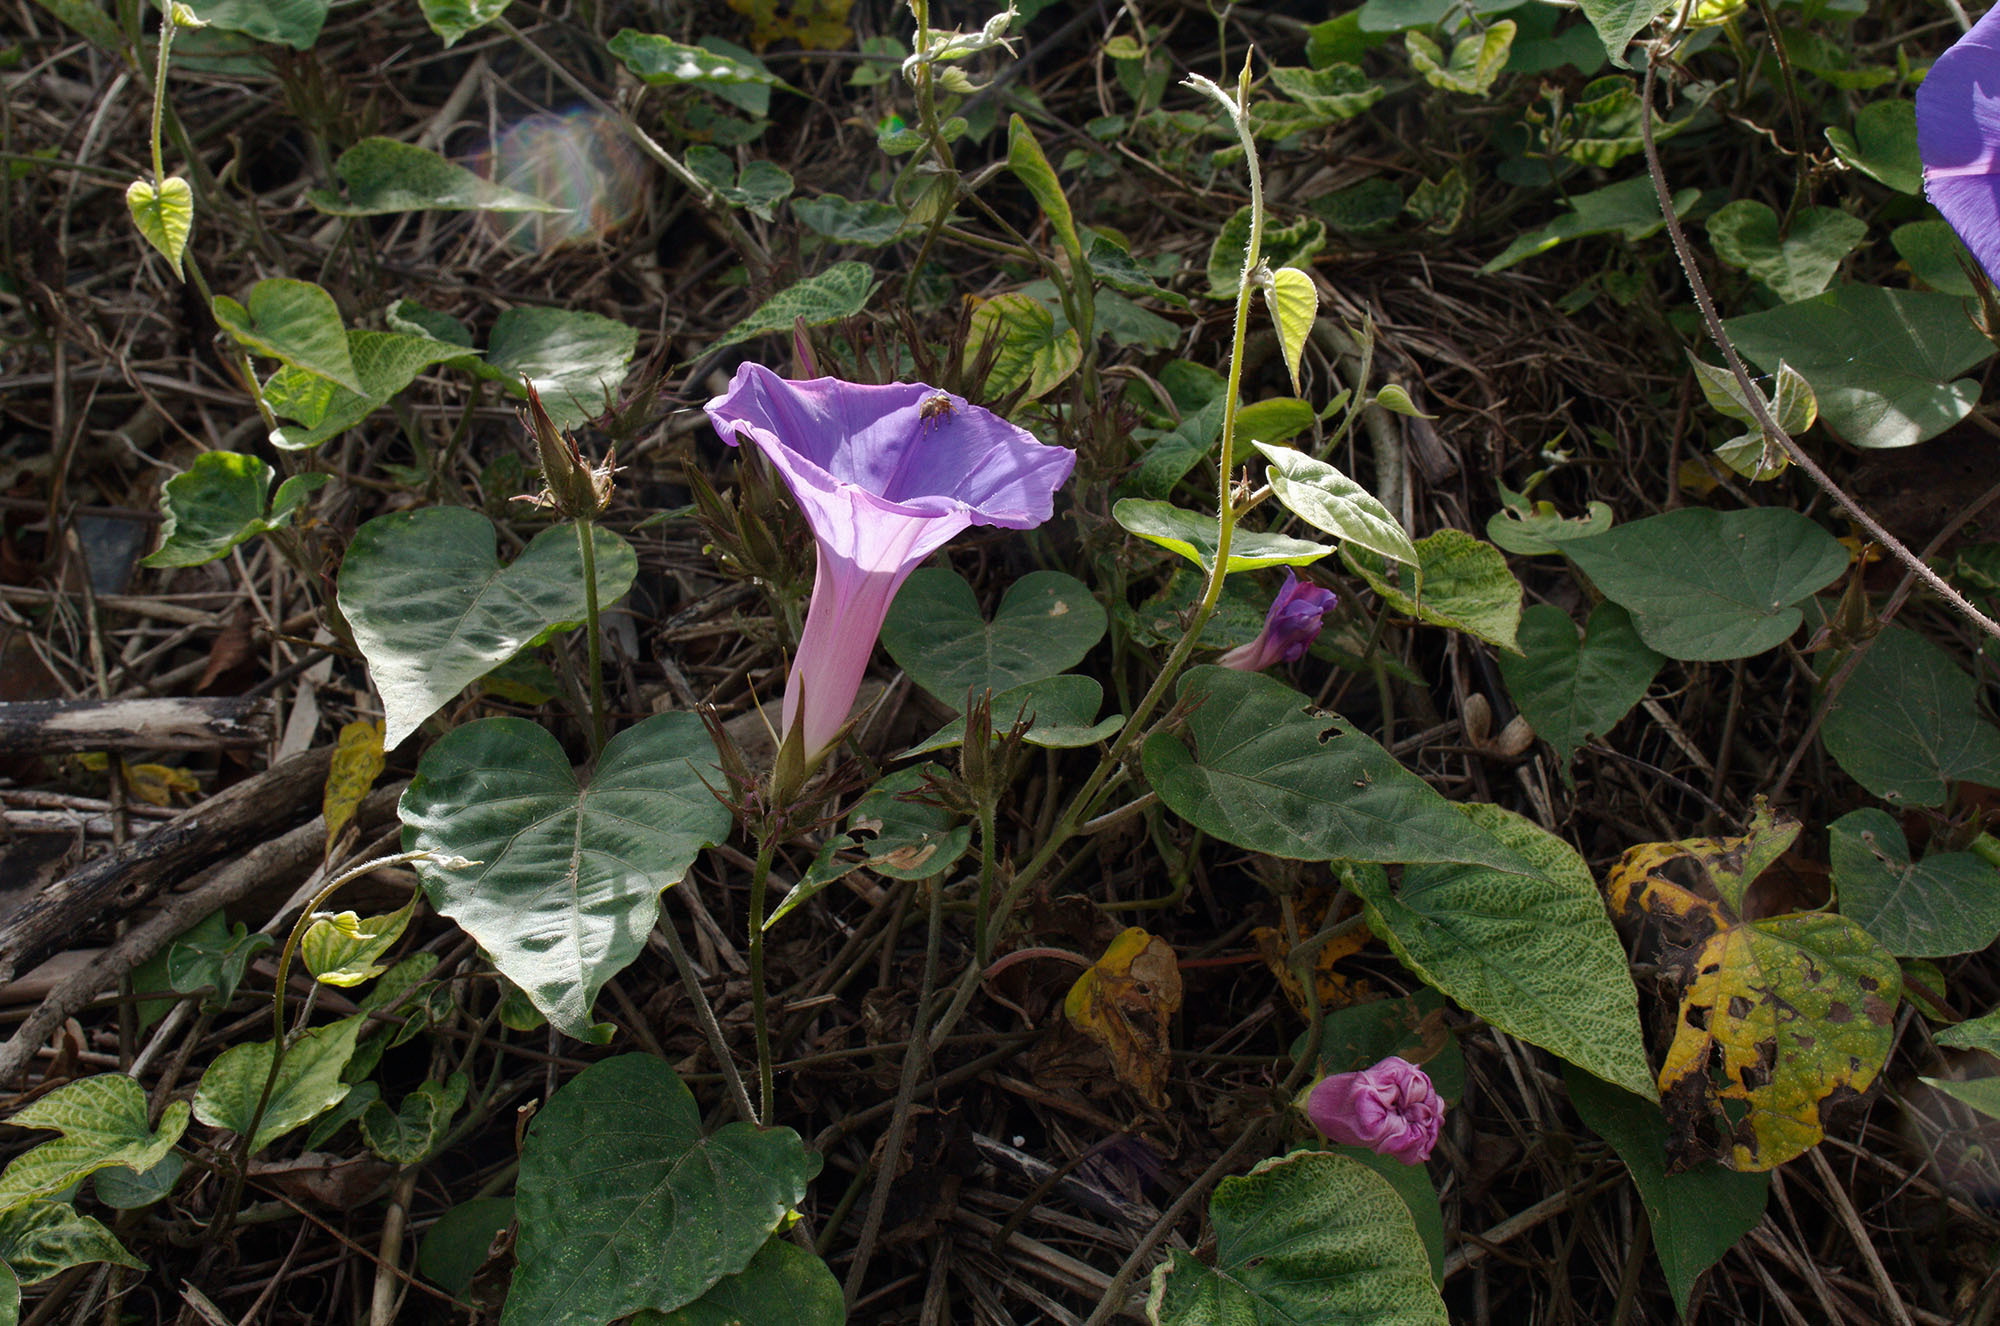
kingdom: Plantae
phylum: Tracheophyta
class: Magnoliopsida
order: Solanales
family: Convolvulaceae
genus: Ipomoea
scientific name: Ipomoea indica
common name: Blue dawnflower
